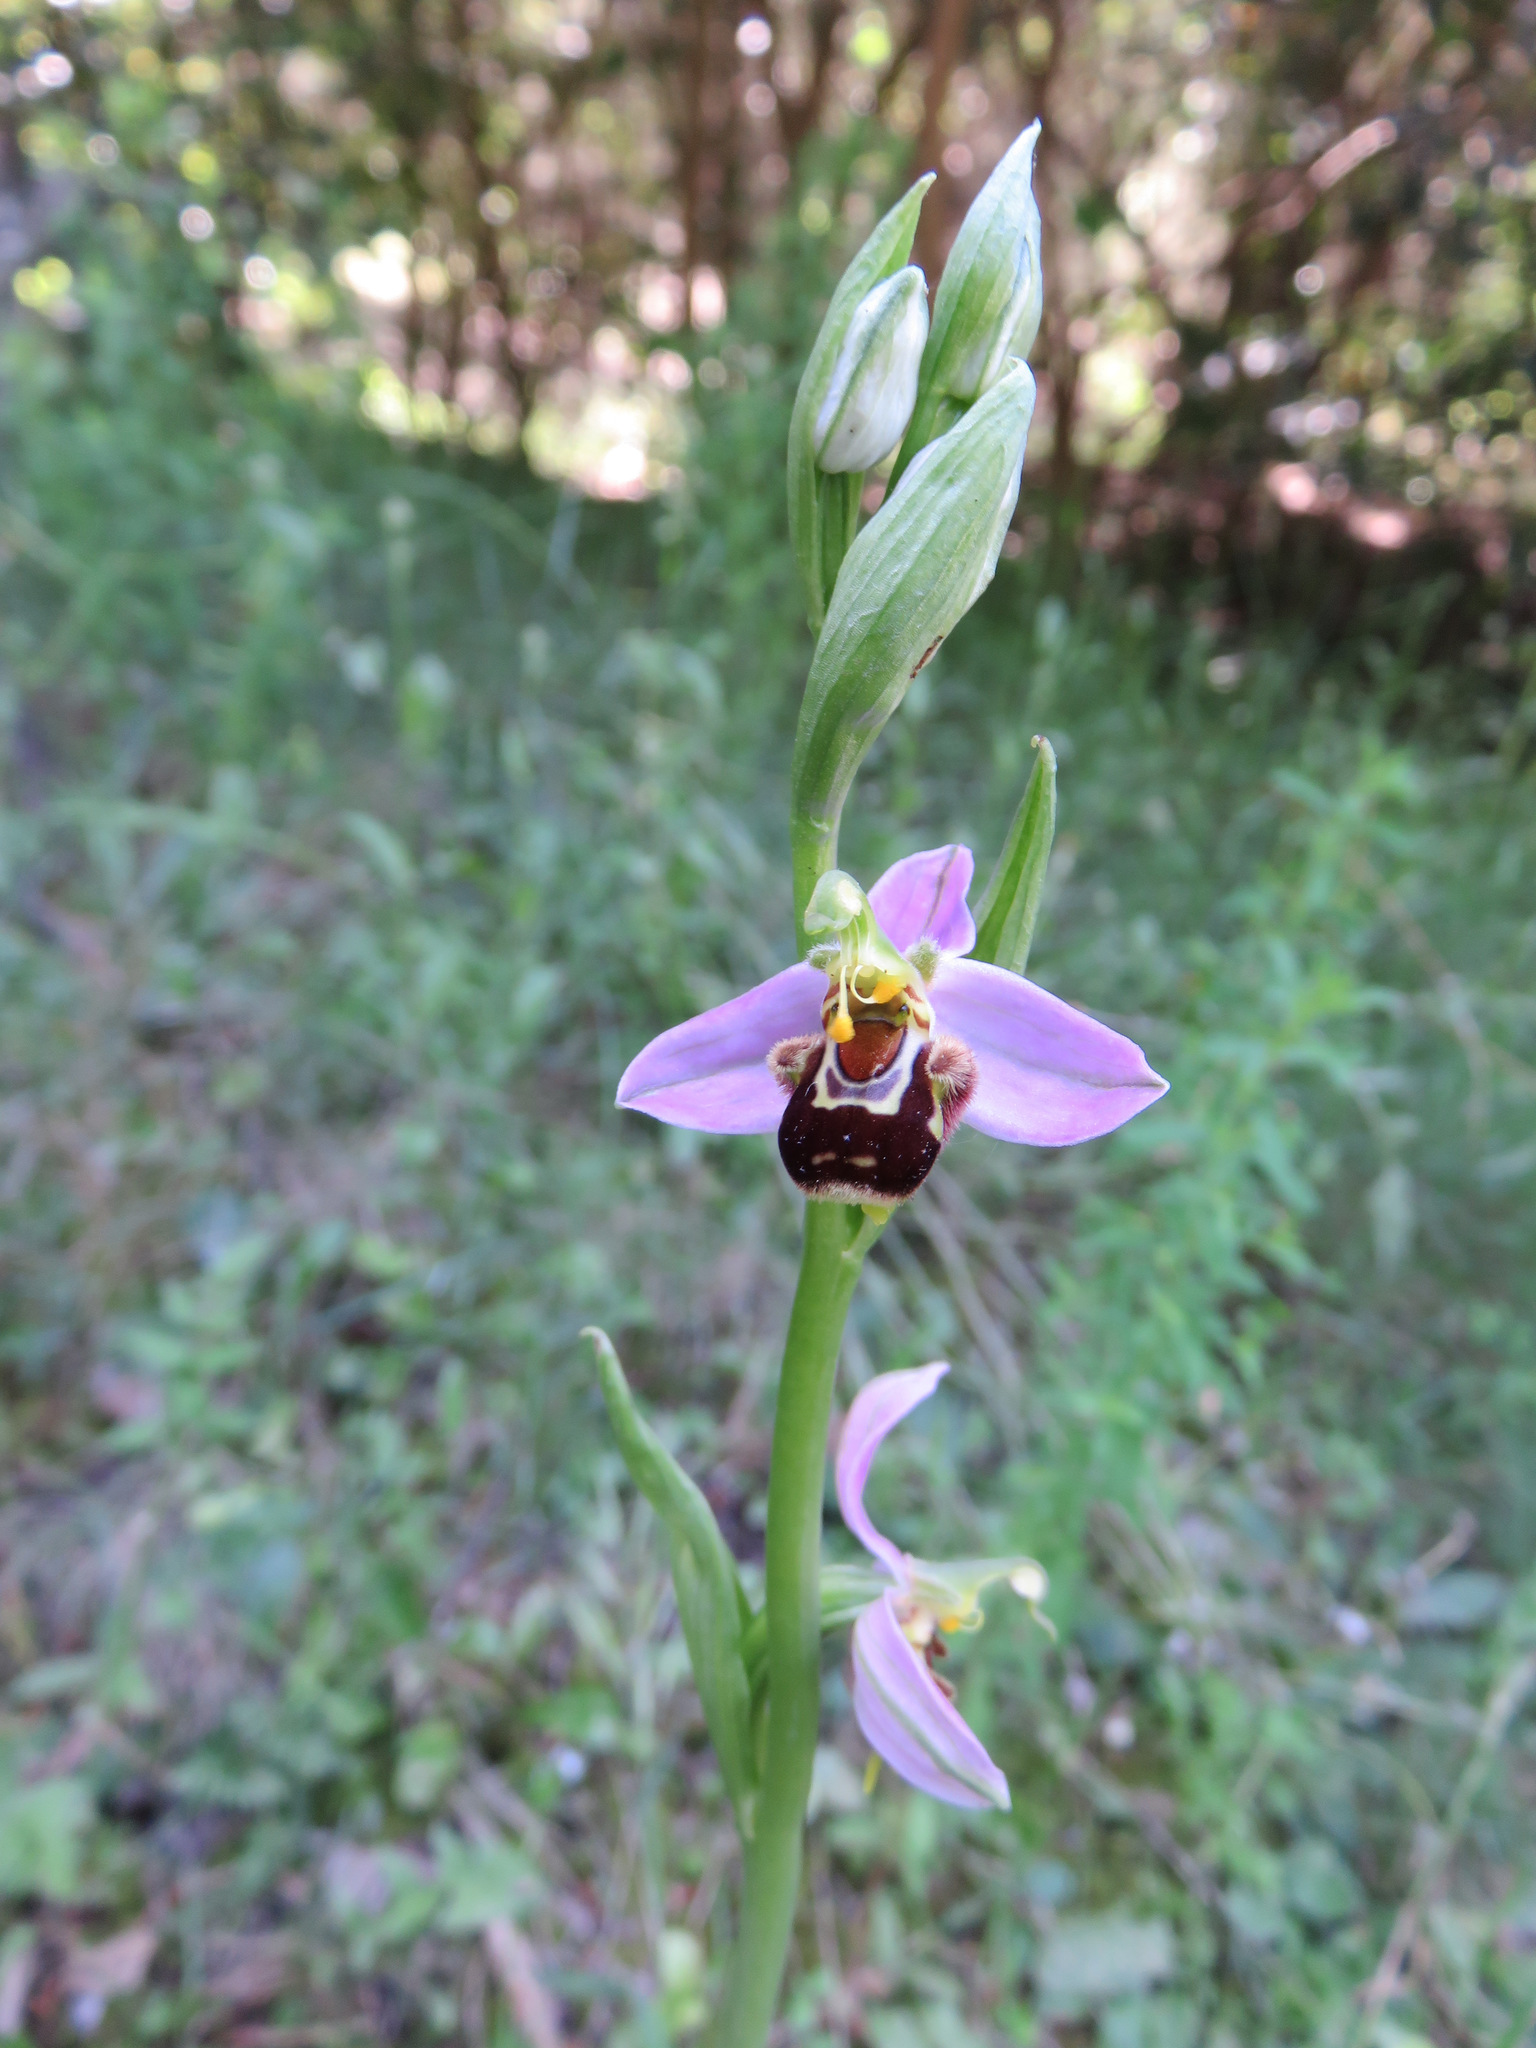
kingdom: Plantae
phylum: Tracheophyta
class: Liliopsida
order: Asparagales
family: Orchidaceae
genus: Ophrys
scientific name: Ophrys apifera
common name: Bee orchid
